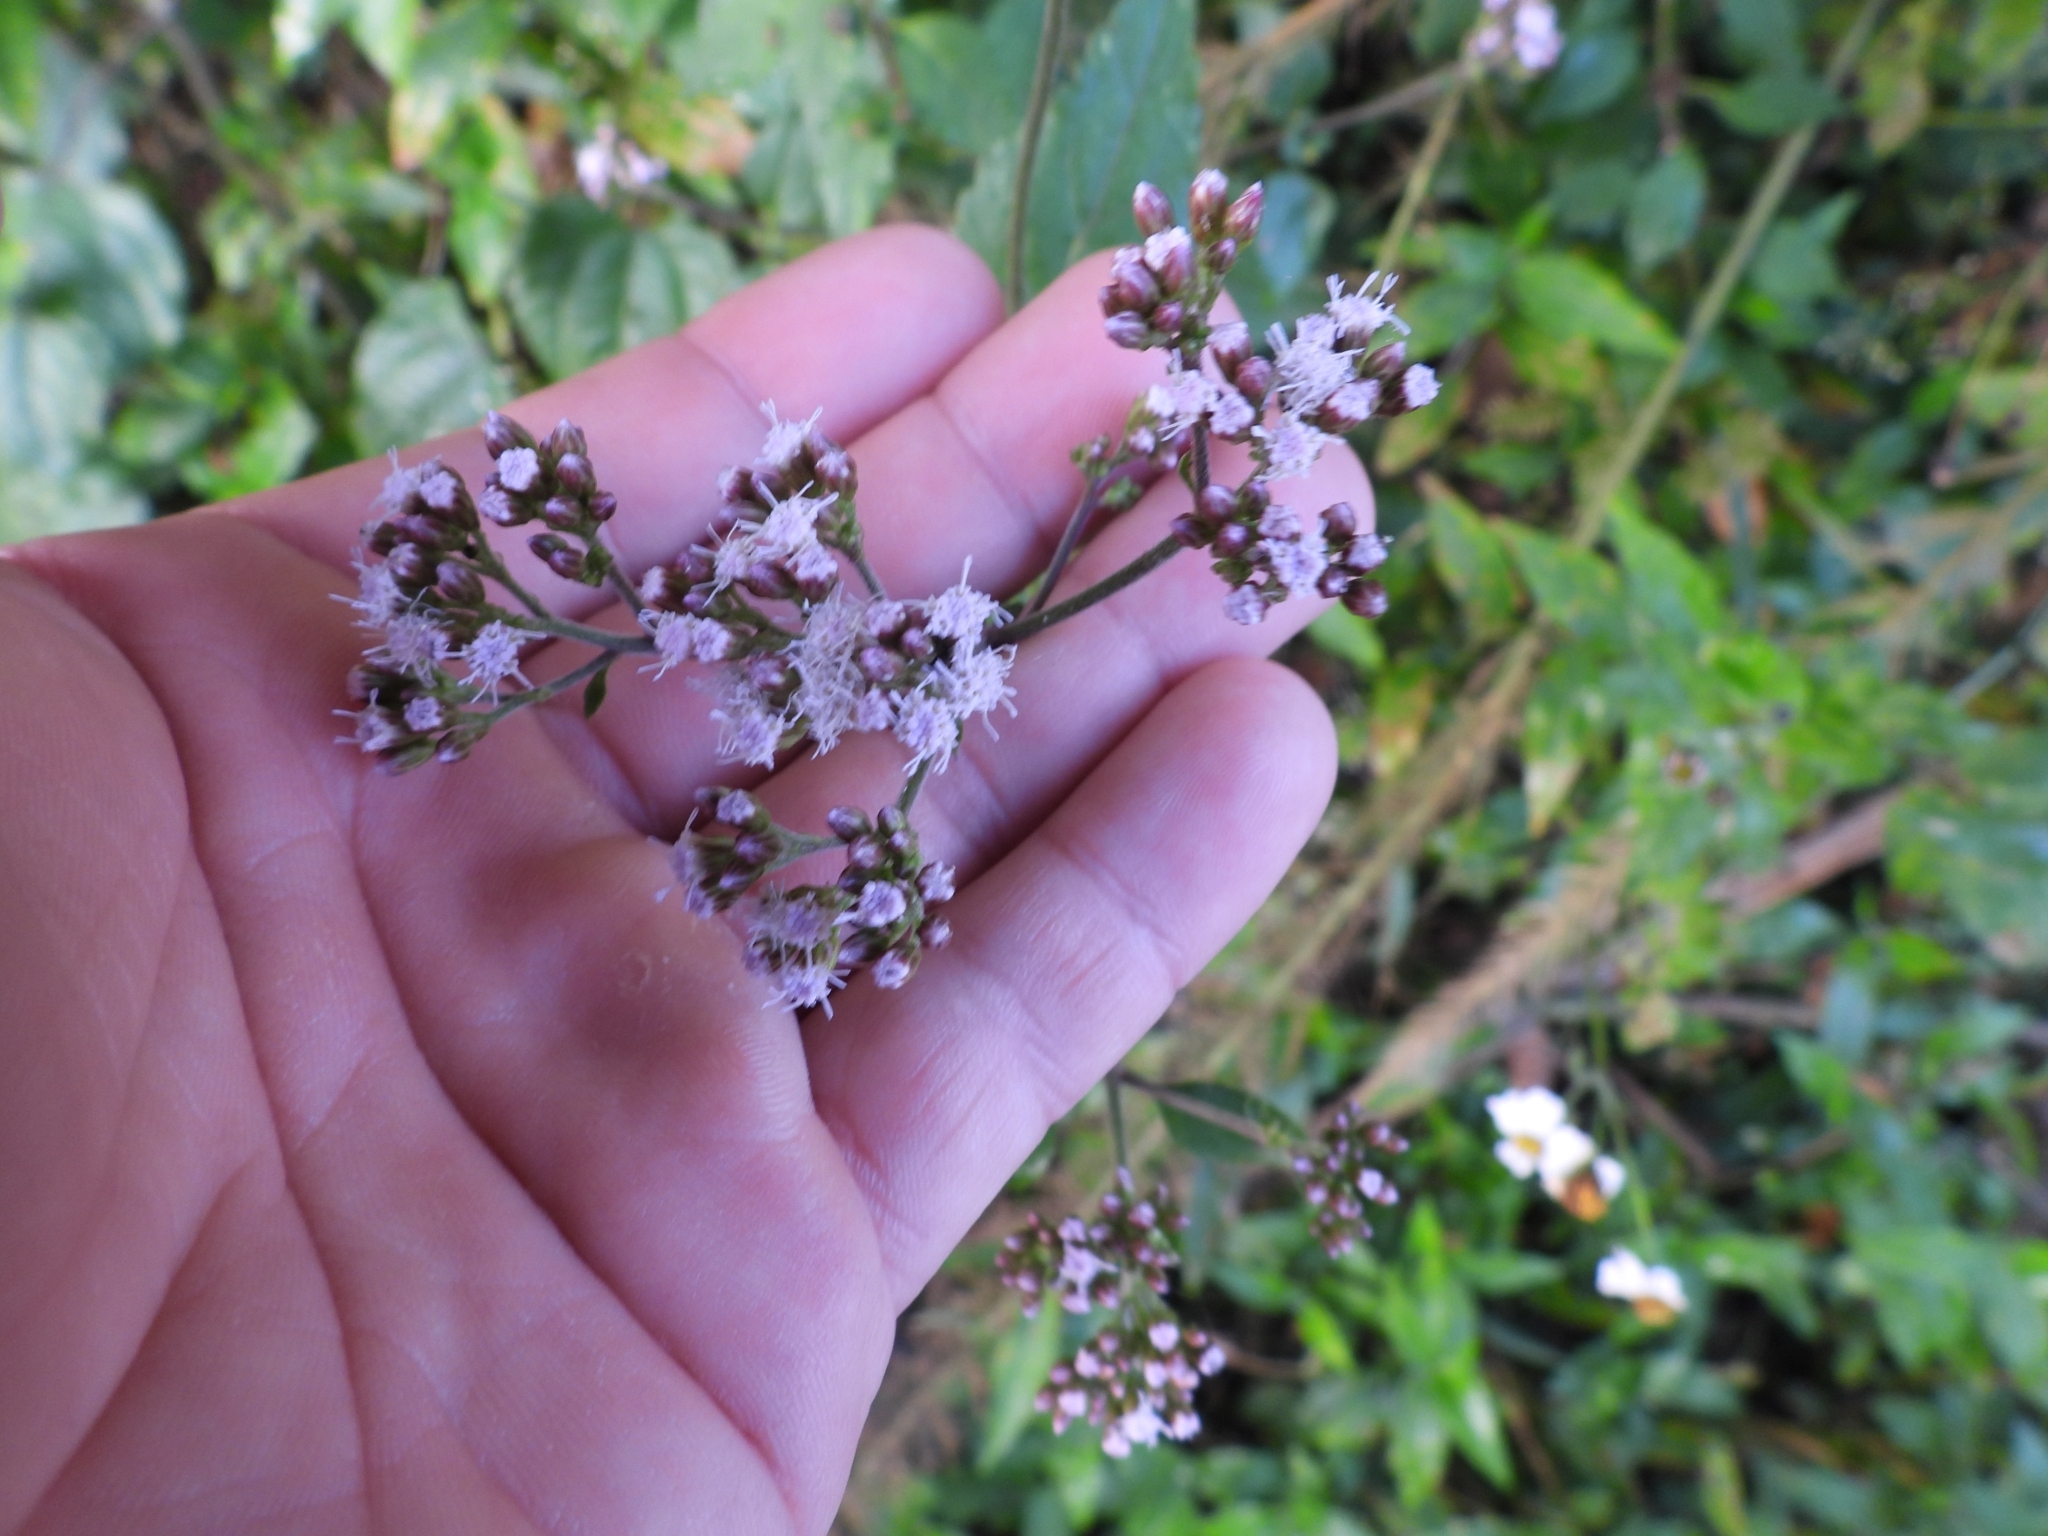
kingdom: Plantae
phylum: Tracheophyta
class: Magnoliopsida
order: Asterales
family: Asteraceae
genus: Fleischmannia
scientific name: Fleischmannia pycnocephala
